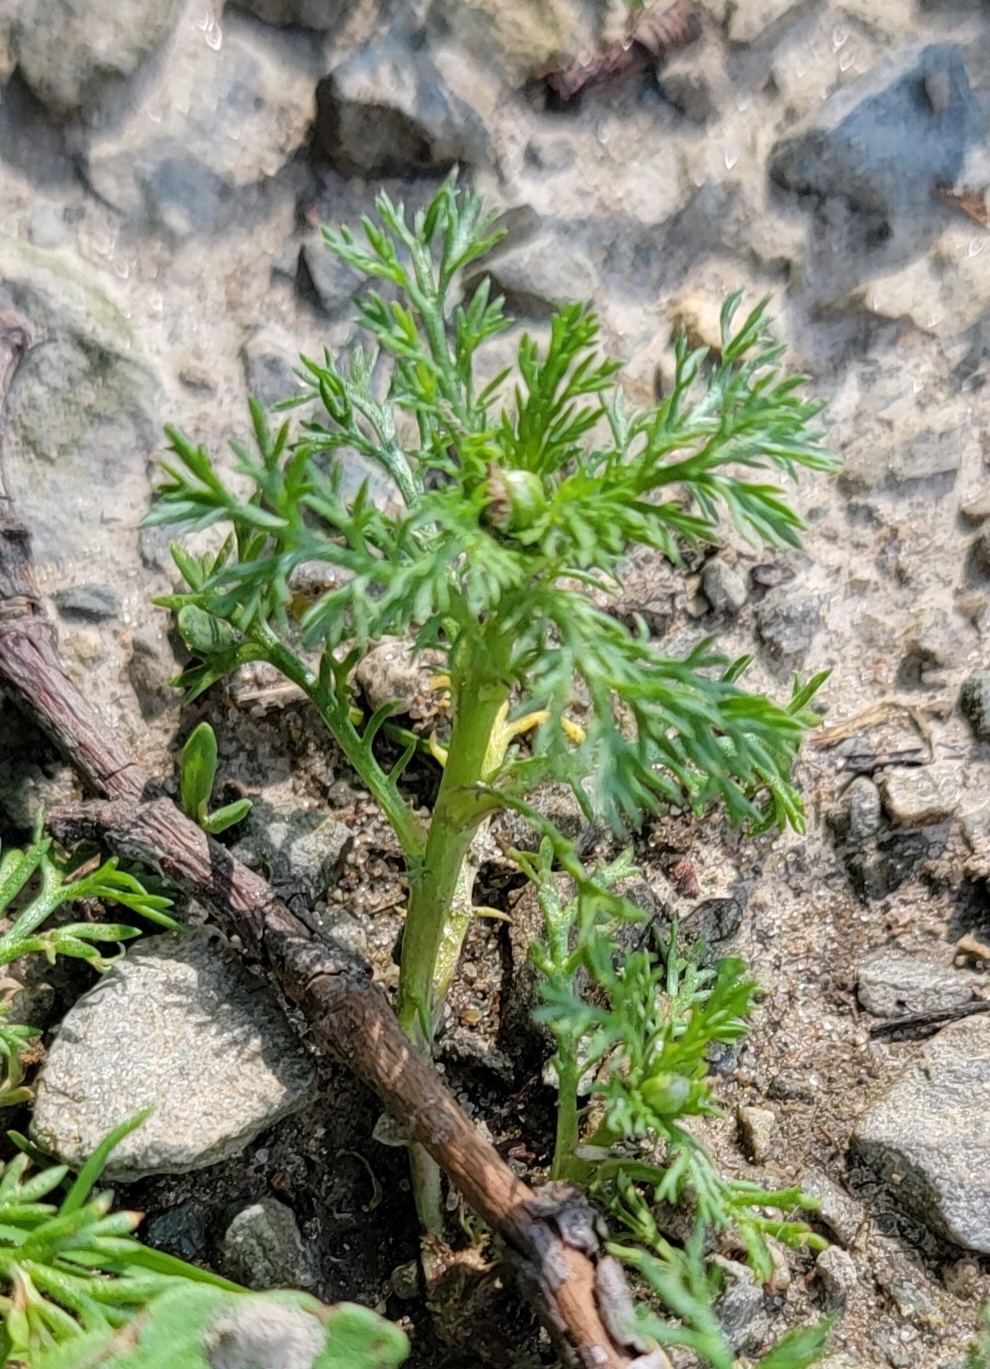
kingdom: Plantae
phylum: Tracheophyta
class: Magnoliopsida
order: Asterales
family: Asteraceae
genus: Matricaria
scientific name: Matricaria discoidea
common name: Disc mayweed
